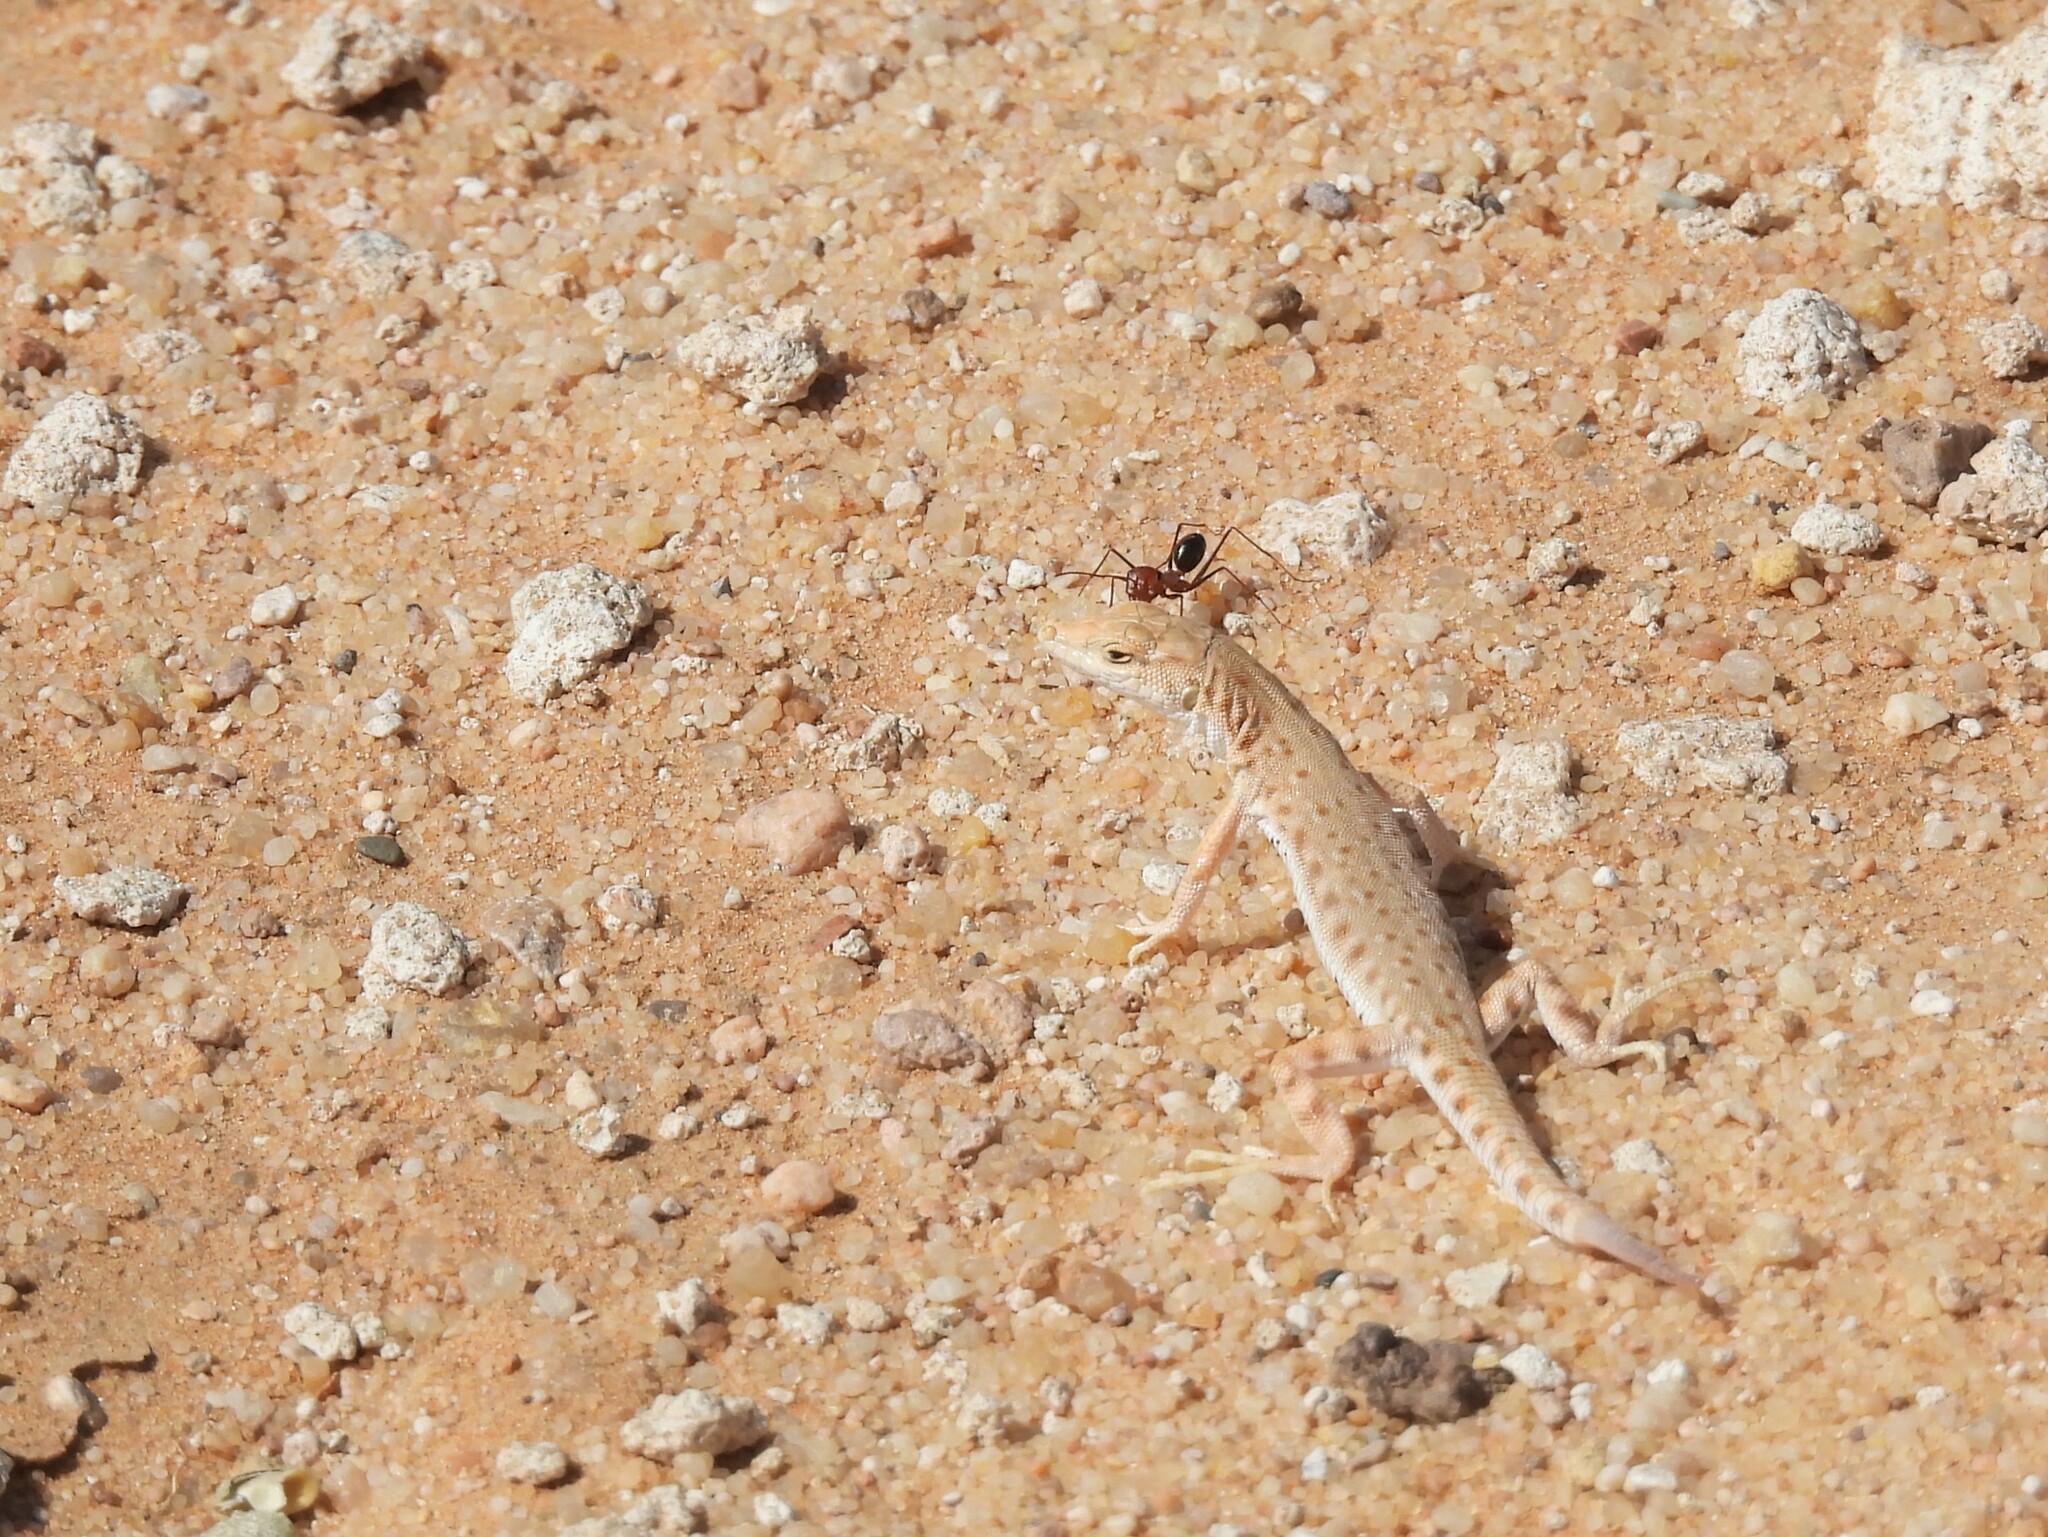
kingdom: Animalia
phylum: Chordata
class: Squamata
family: Lacertidae
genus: Mesalina
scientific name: Mesalina brevirostris
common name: Blanford's short-nosed desert lizard
